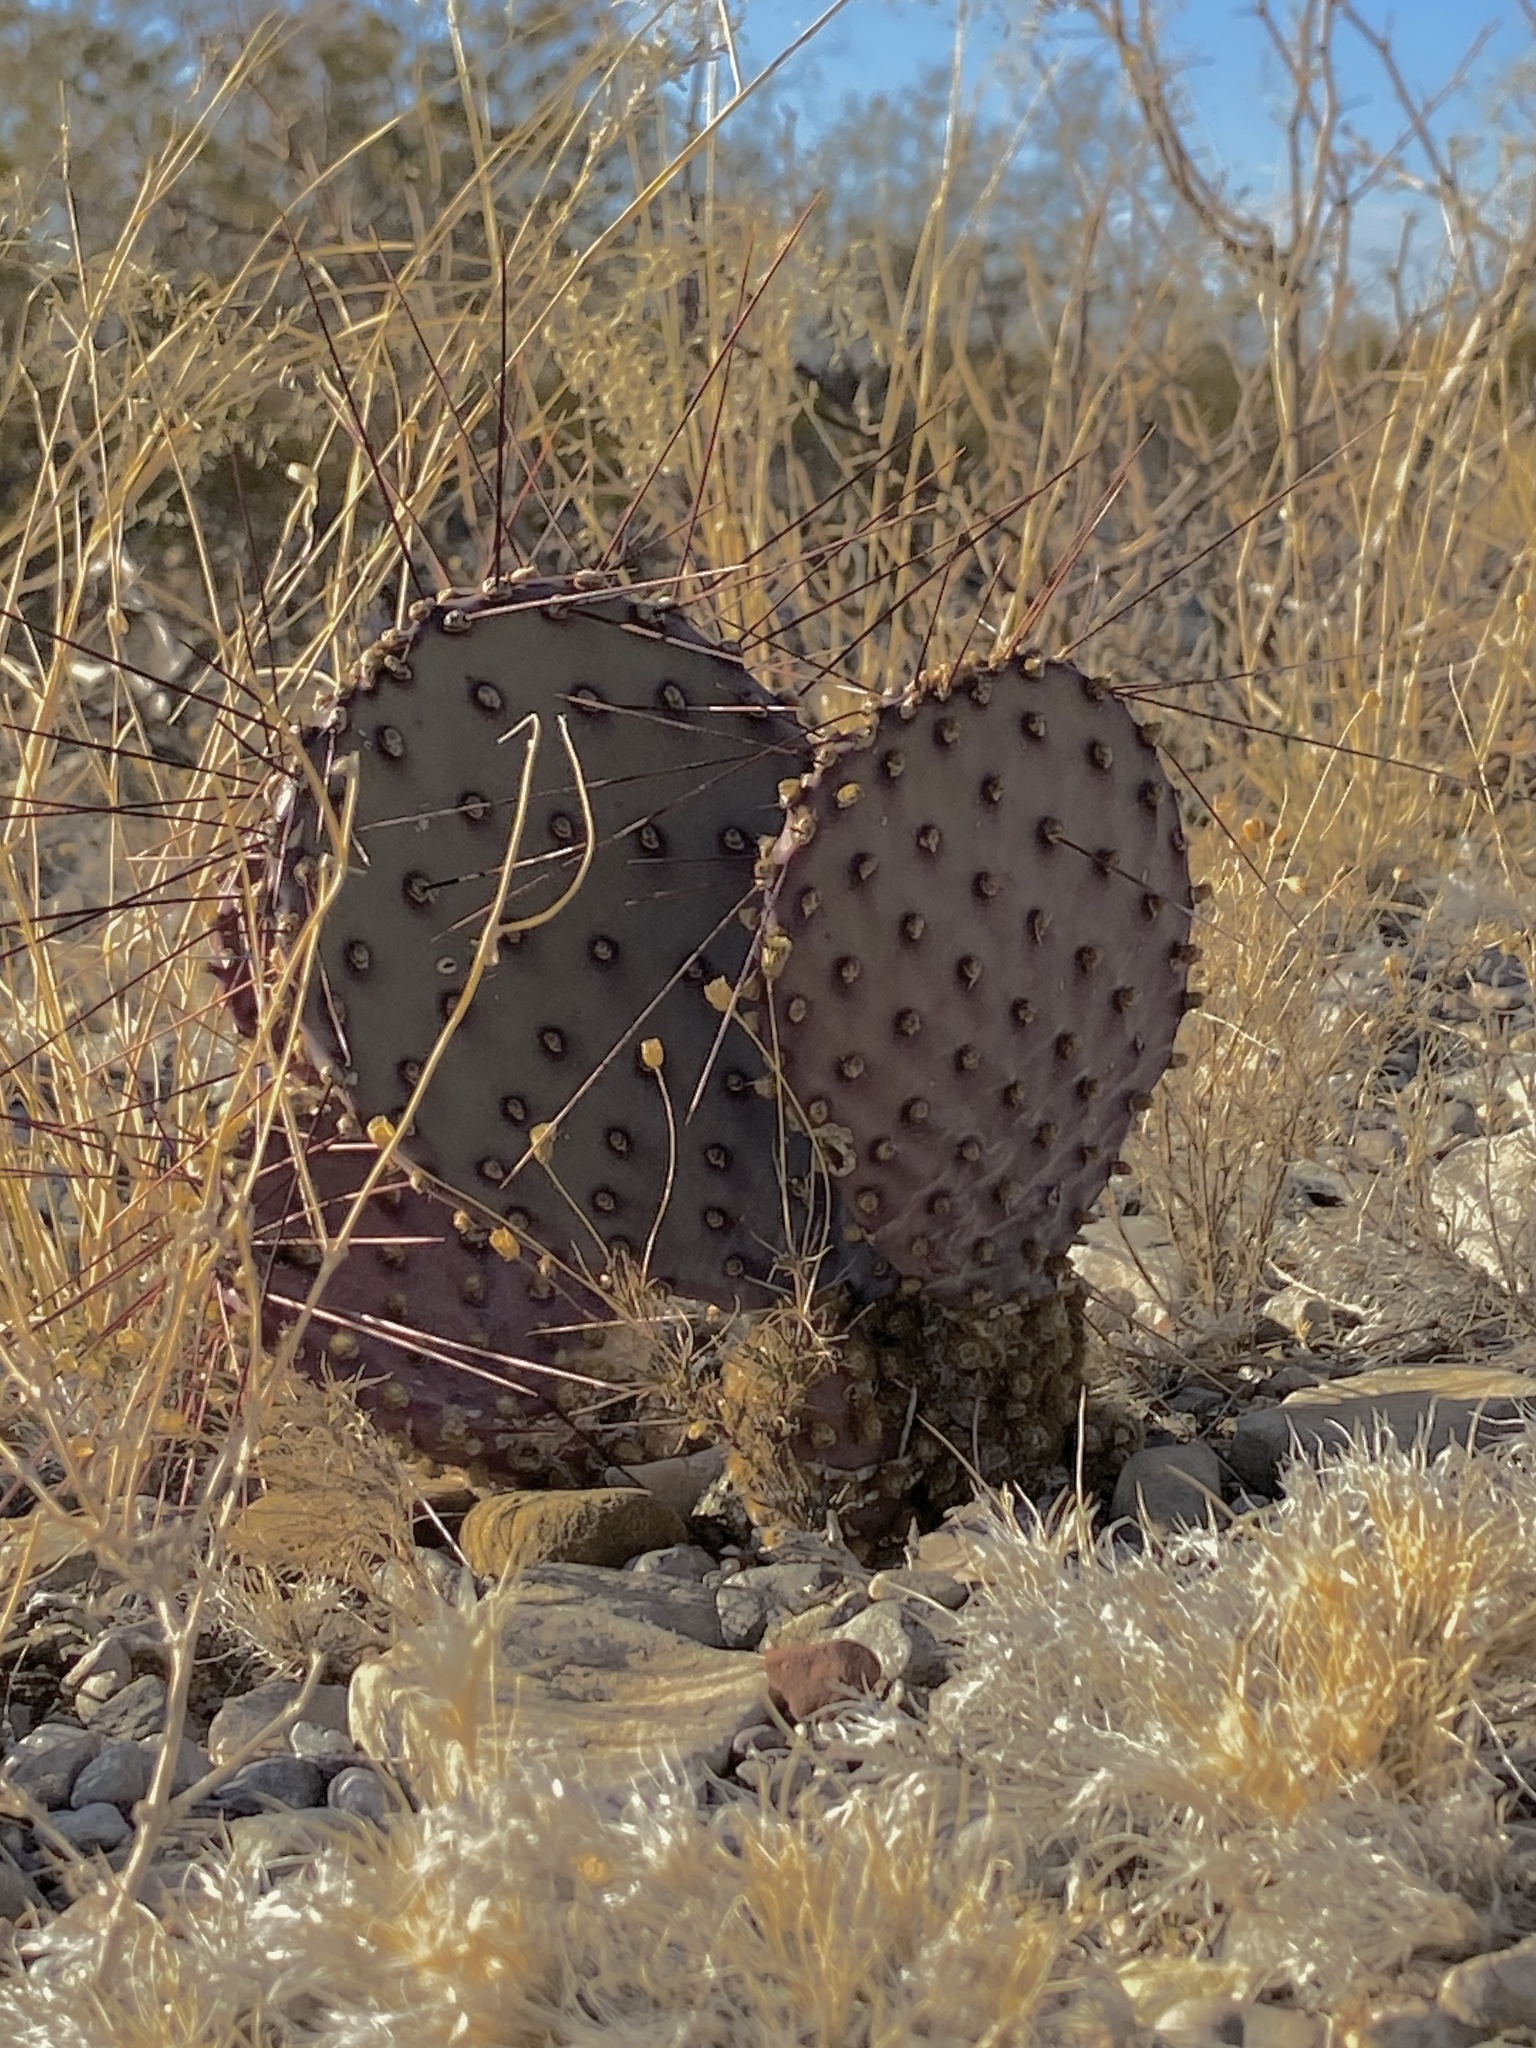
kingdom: Plantae
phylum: Tracheophyta
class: Magnoliopsida
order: Caryophyllales
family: Cactaceae
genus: Opuntia
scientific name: Opuntia macrocentra
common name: Purple prickly-pear
